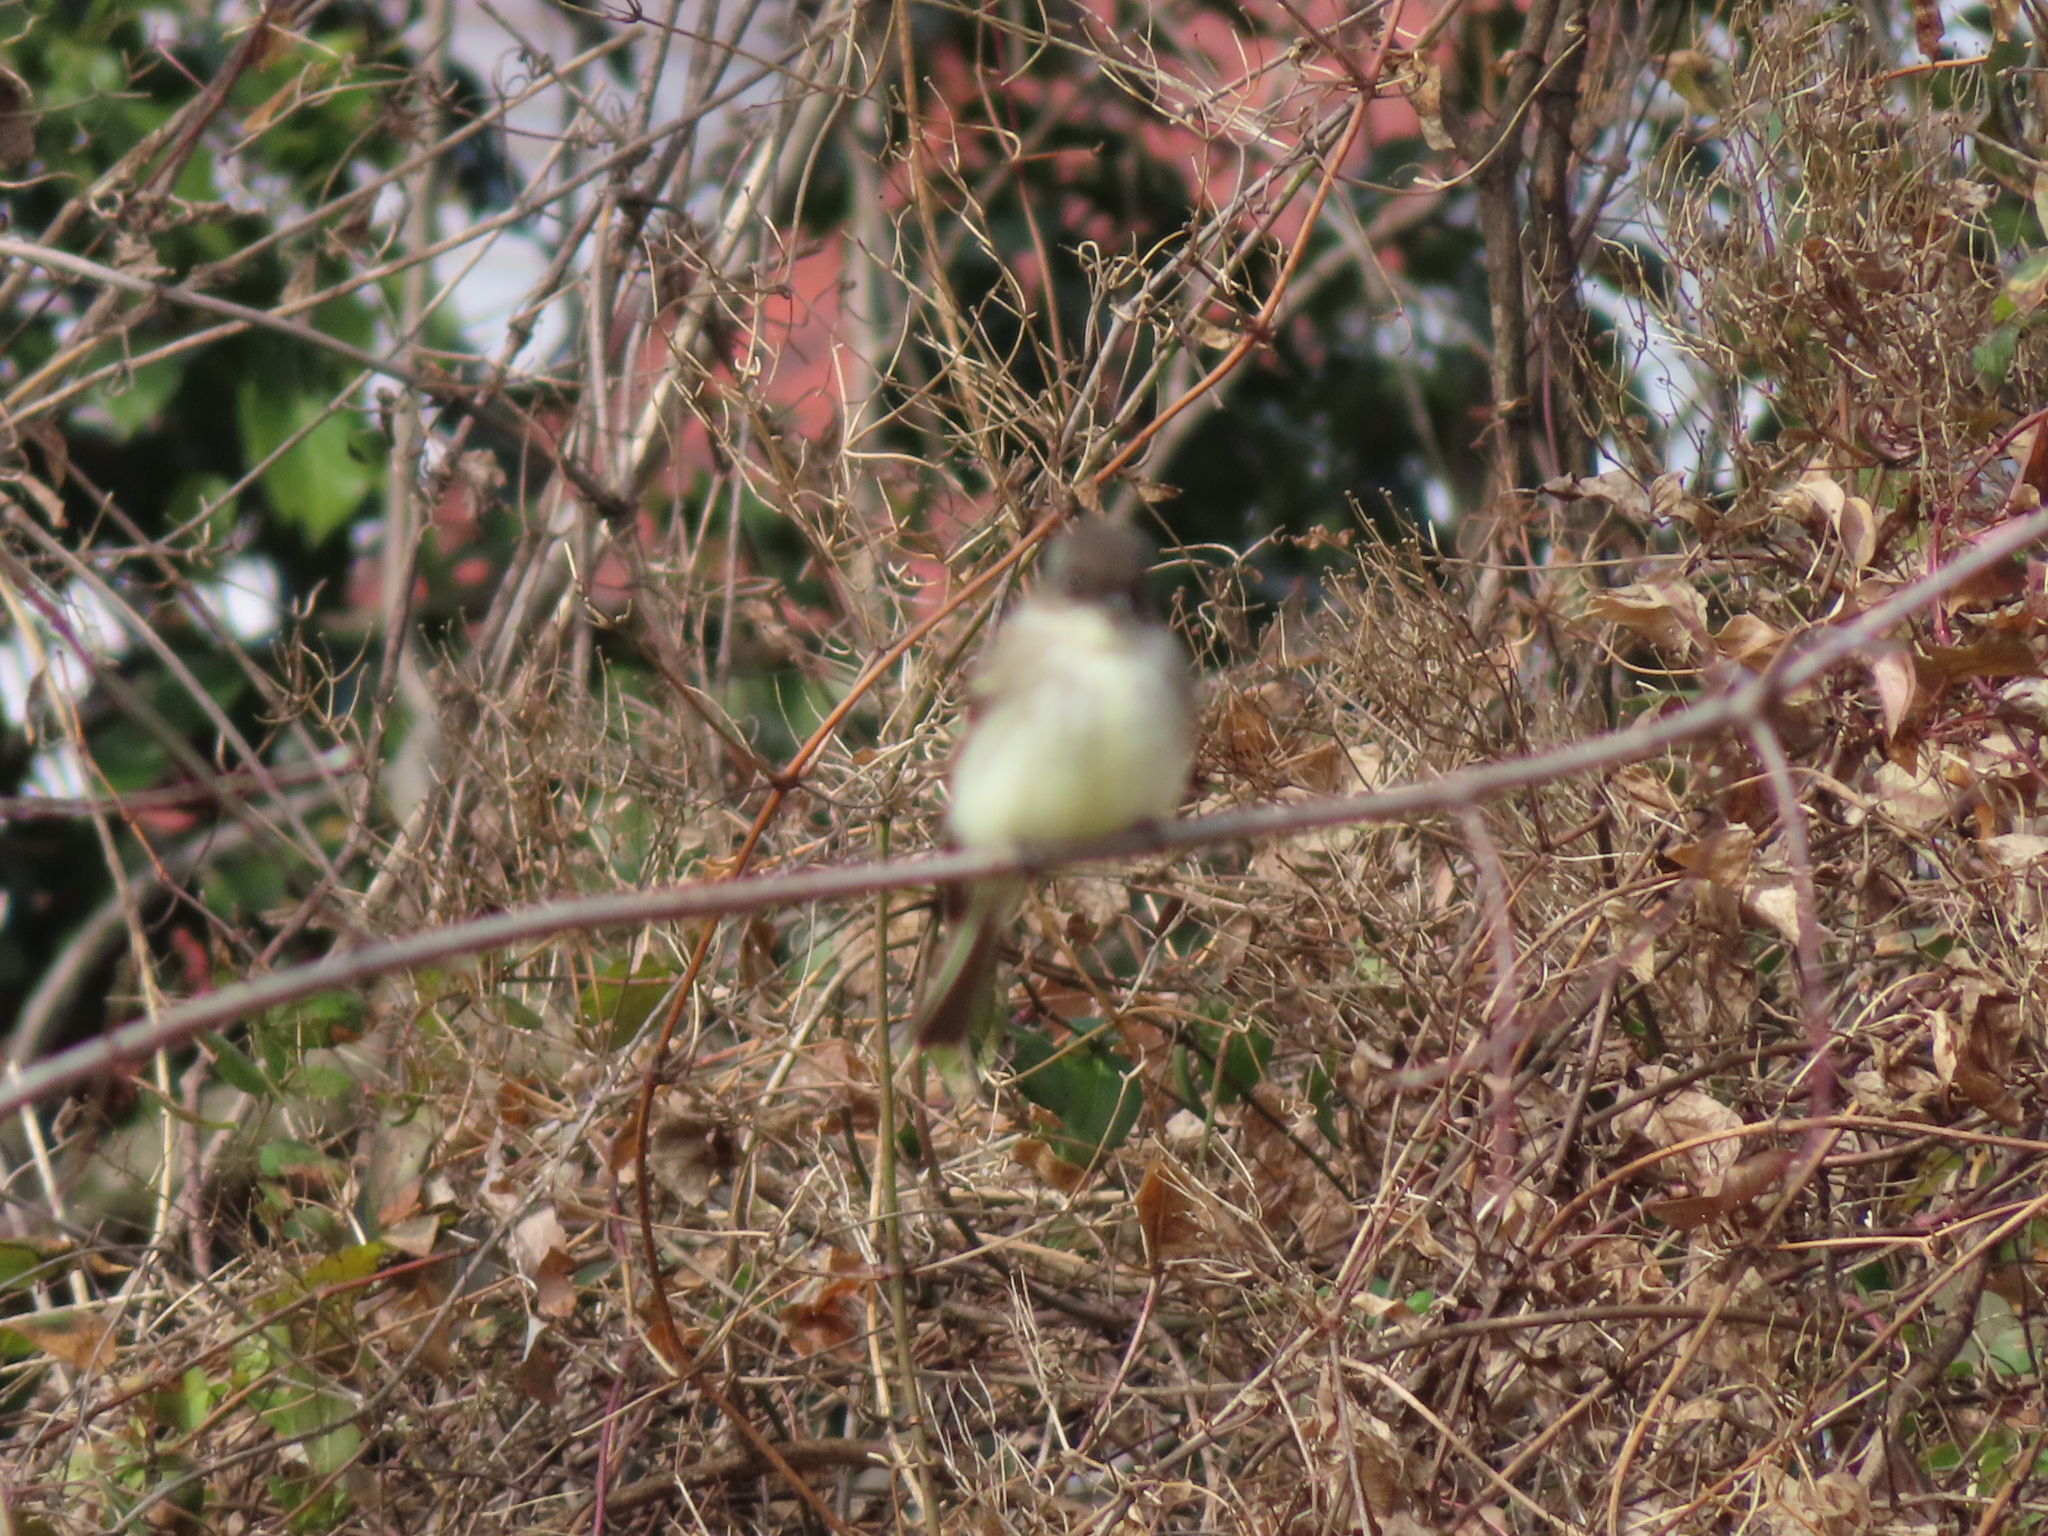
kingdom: Animalia
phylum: Chordata
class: Aves
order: Passeriformes
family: Tyrannidae
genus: Sayornis
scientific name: Sayornis phoebe
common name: Eastern phoebe
